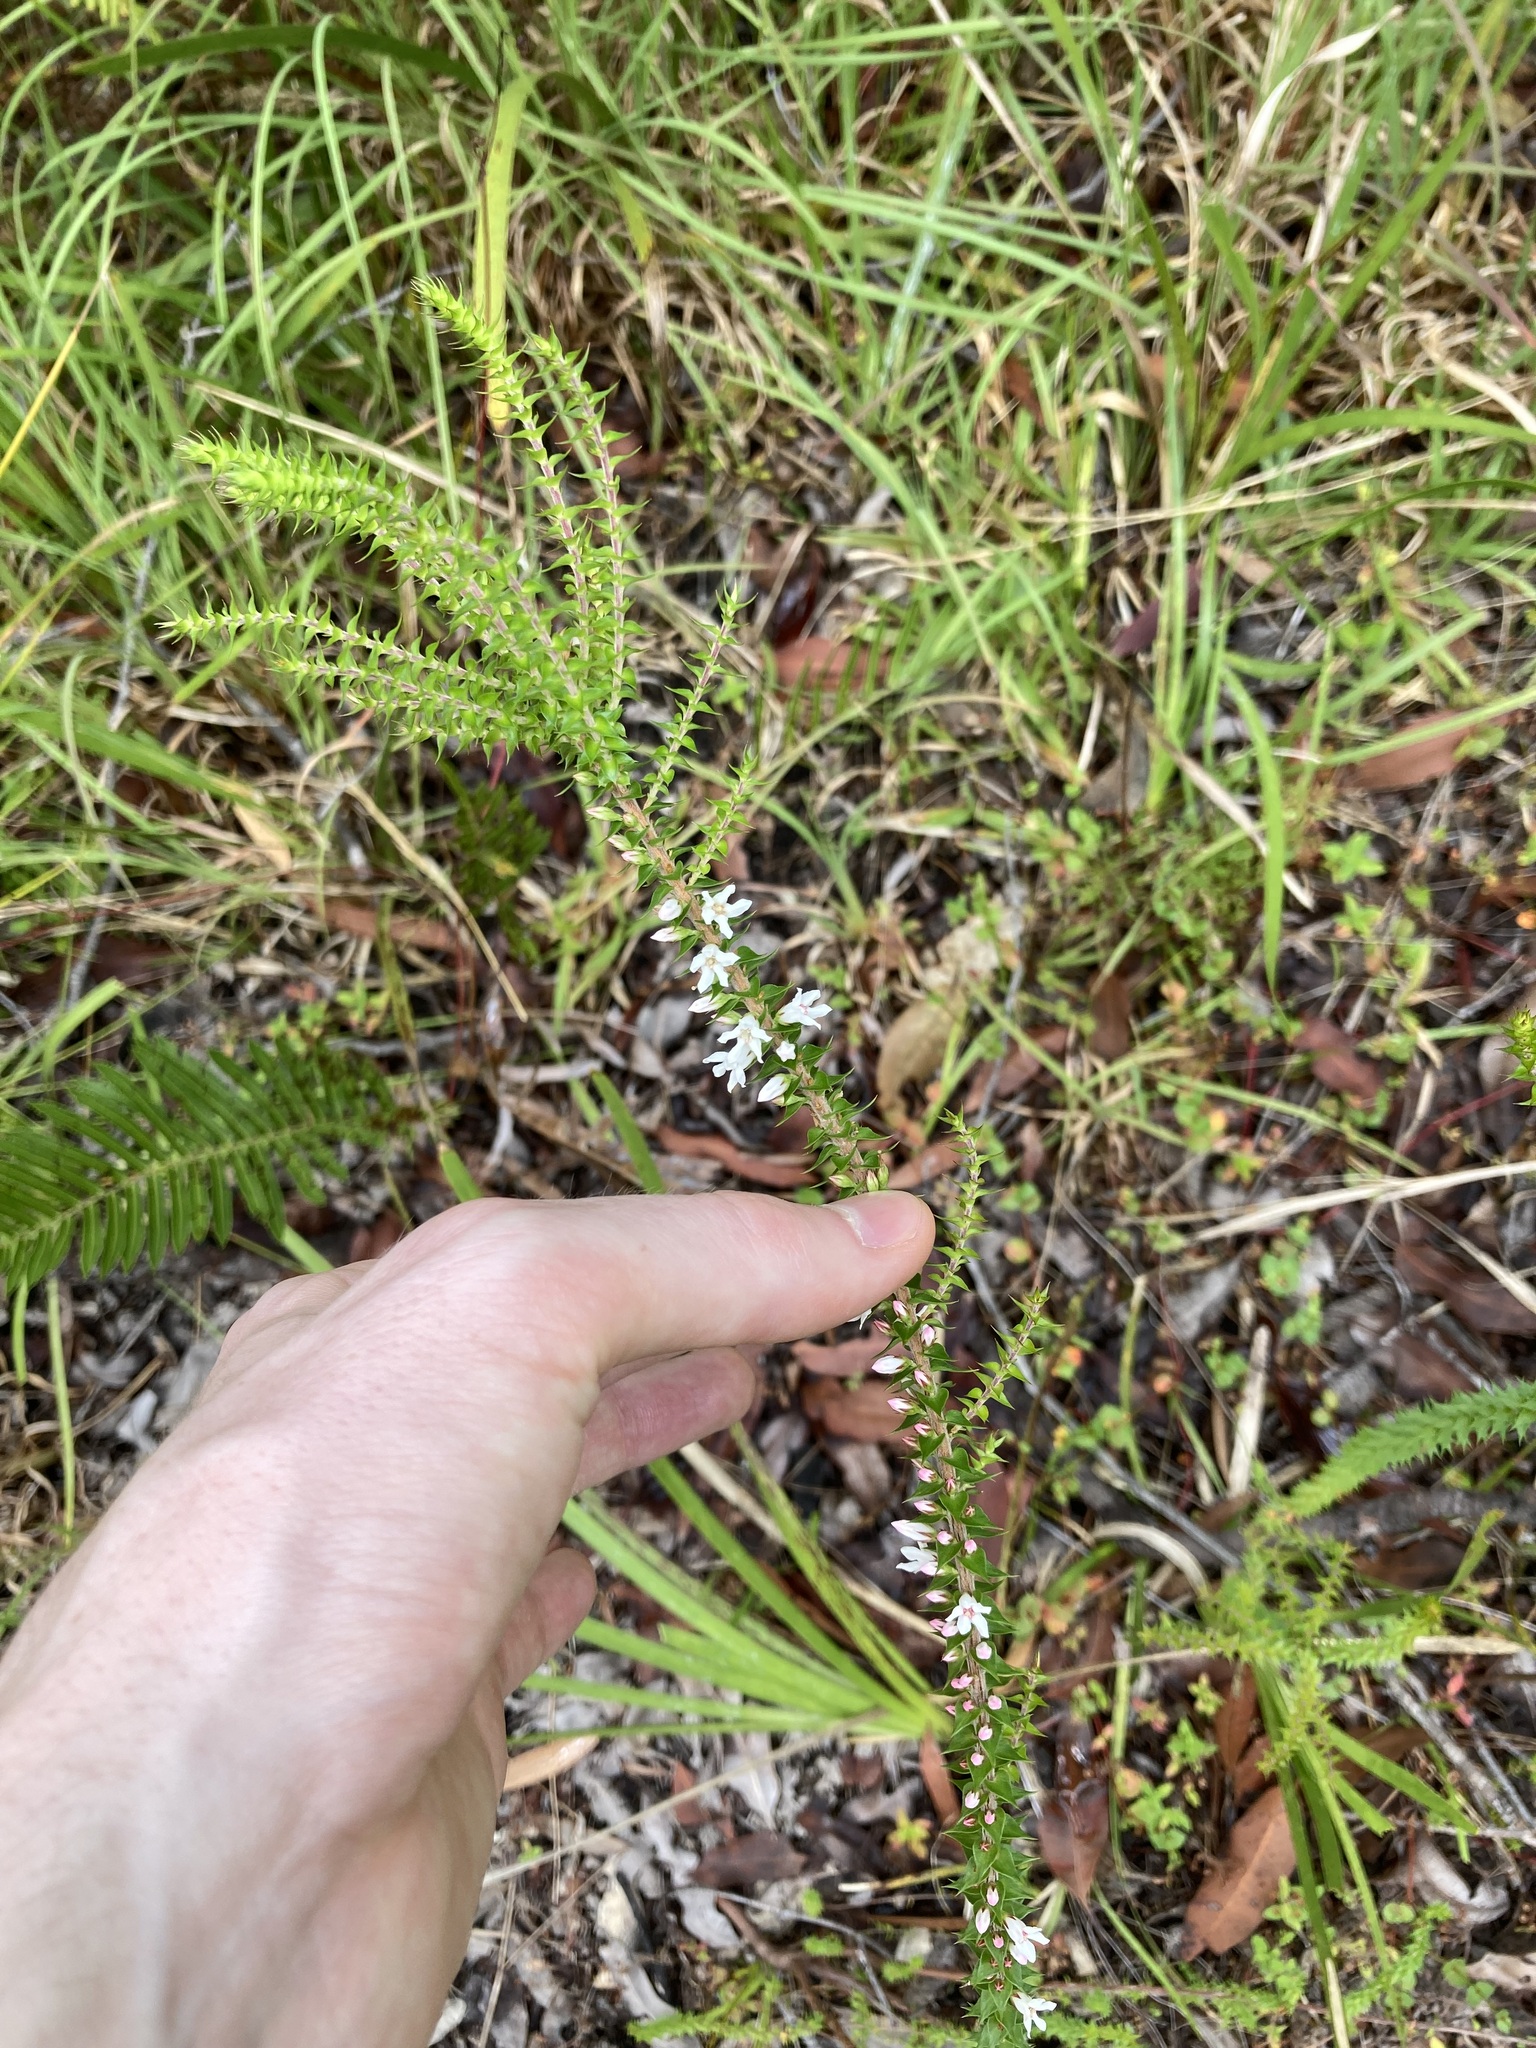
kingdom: Plantae
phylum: Tracheophyta
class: Magnoliopsida
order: Ericales
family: Ericaceae
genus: Epacris
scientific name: Epacris pulchella
